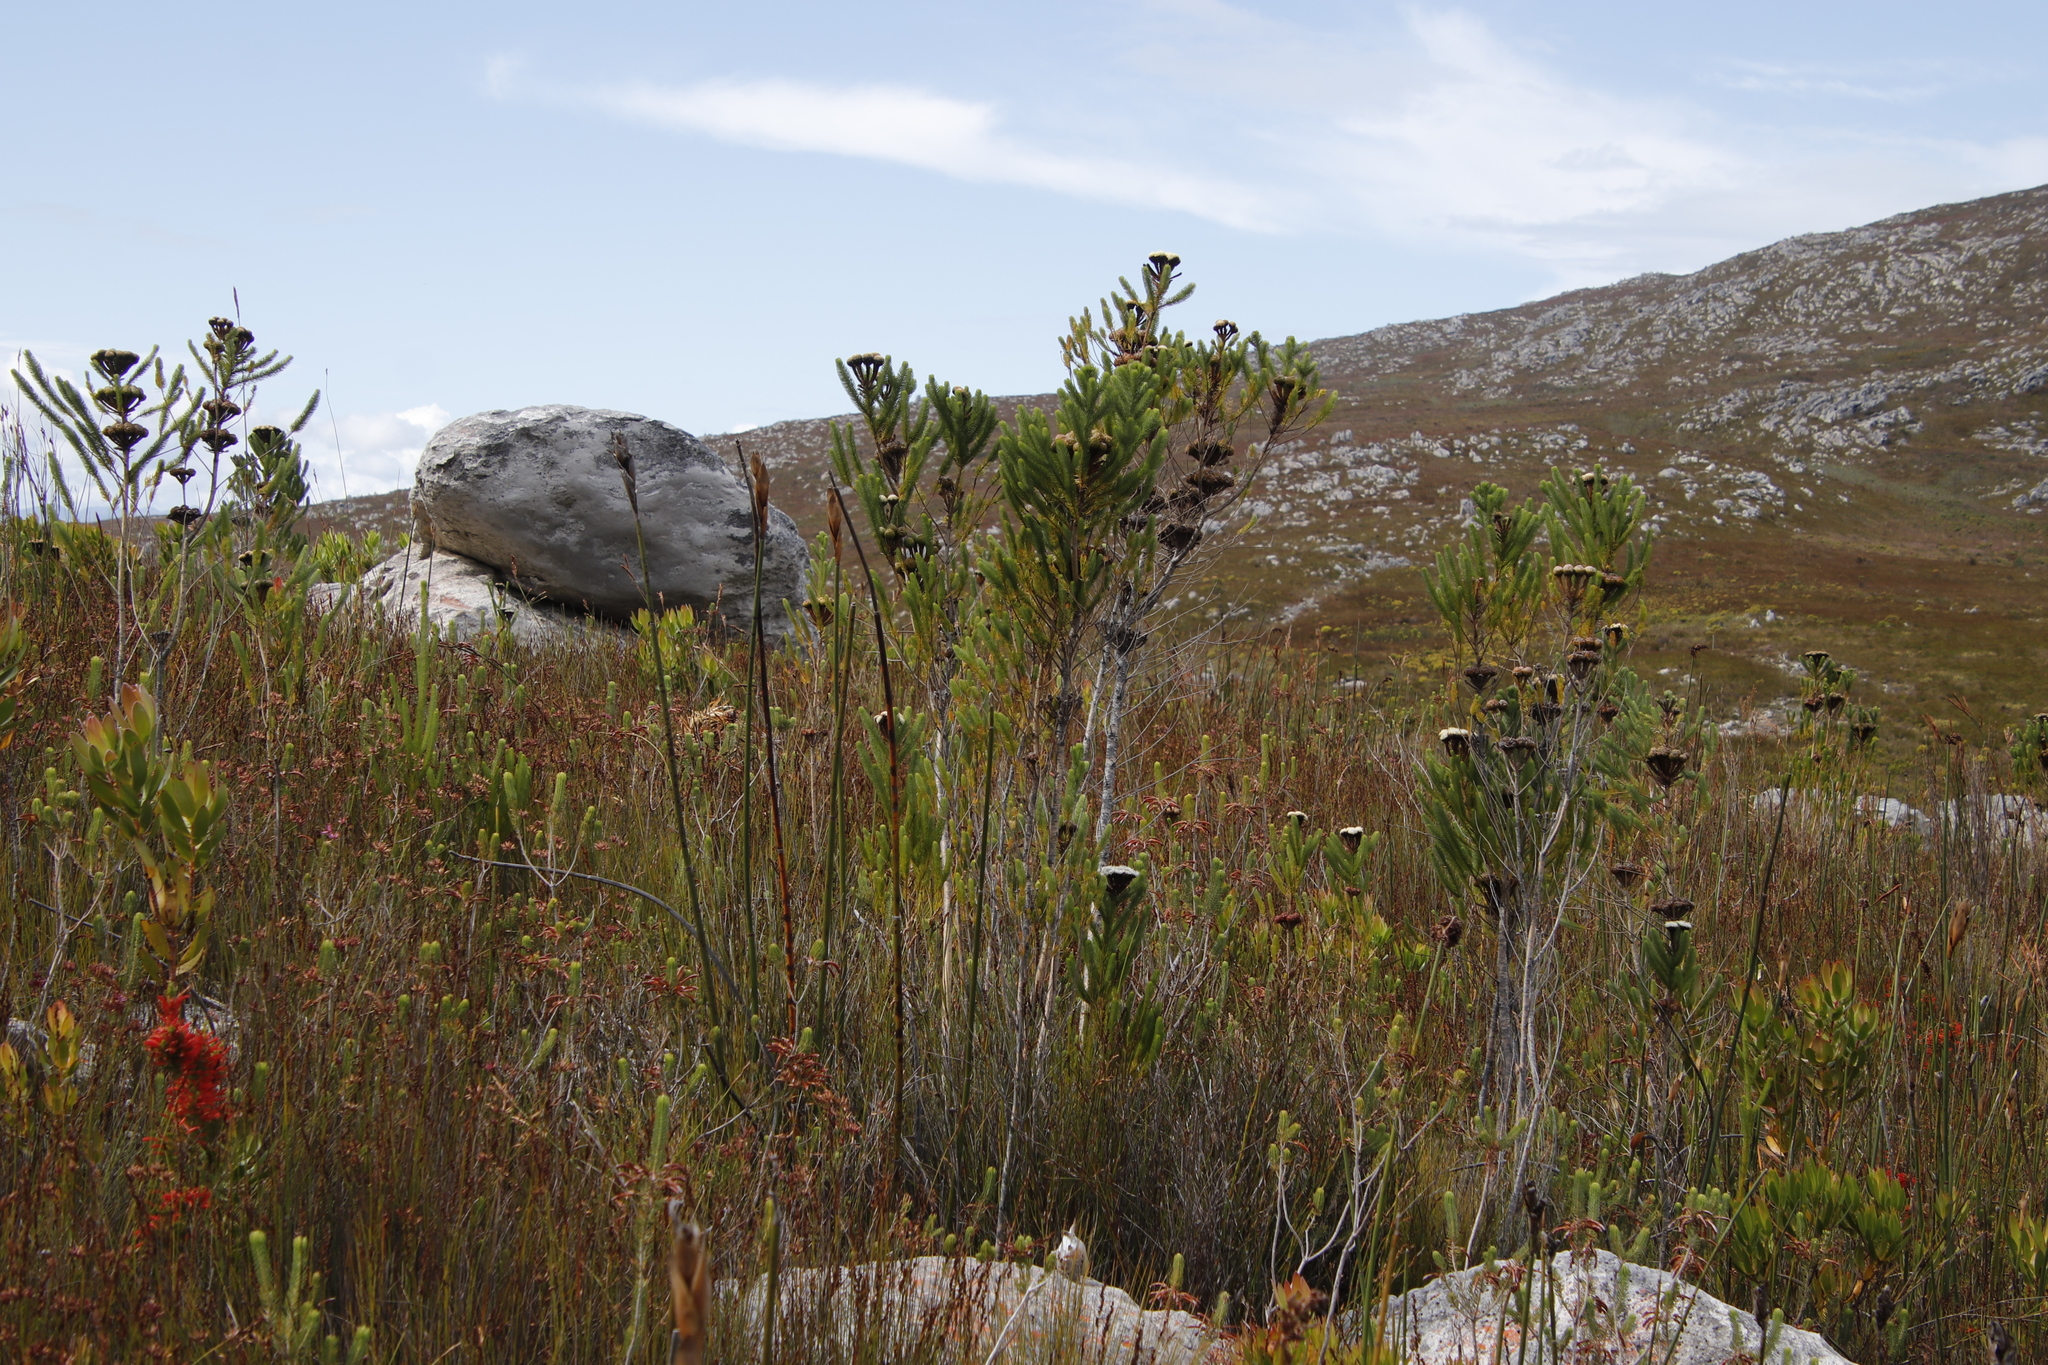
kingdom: Plantae
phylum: Tracheophyta
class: Magnoliopsida
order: Bruniales
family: Bruniaceae
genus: Berzelia
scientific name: Berzelia albiflora
